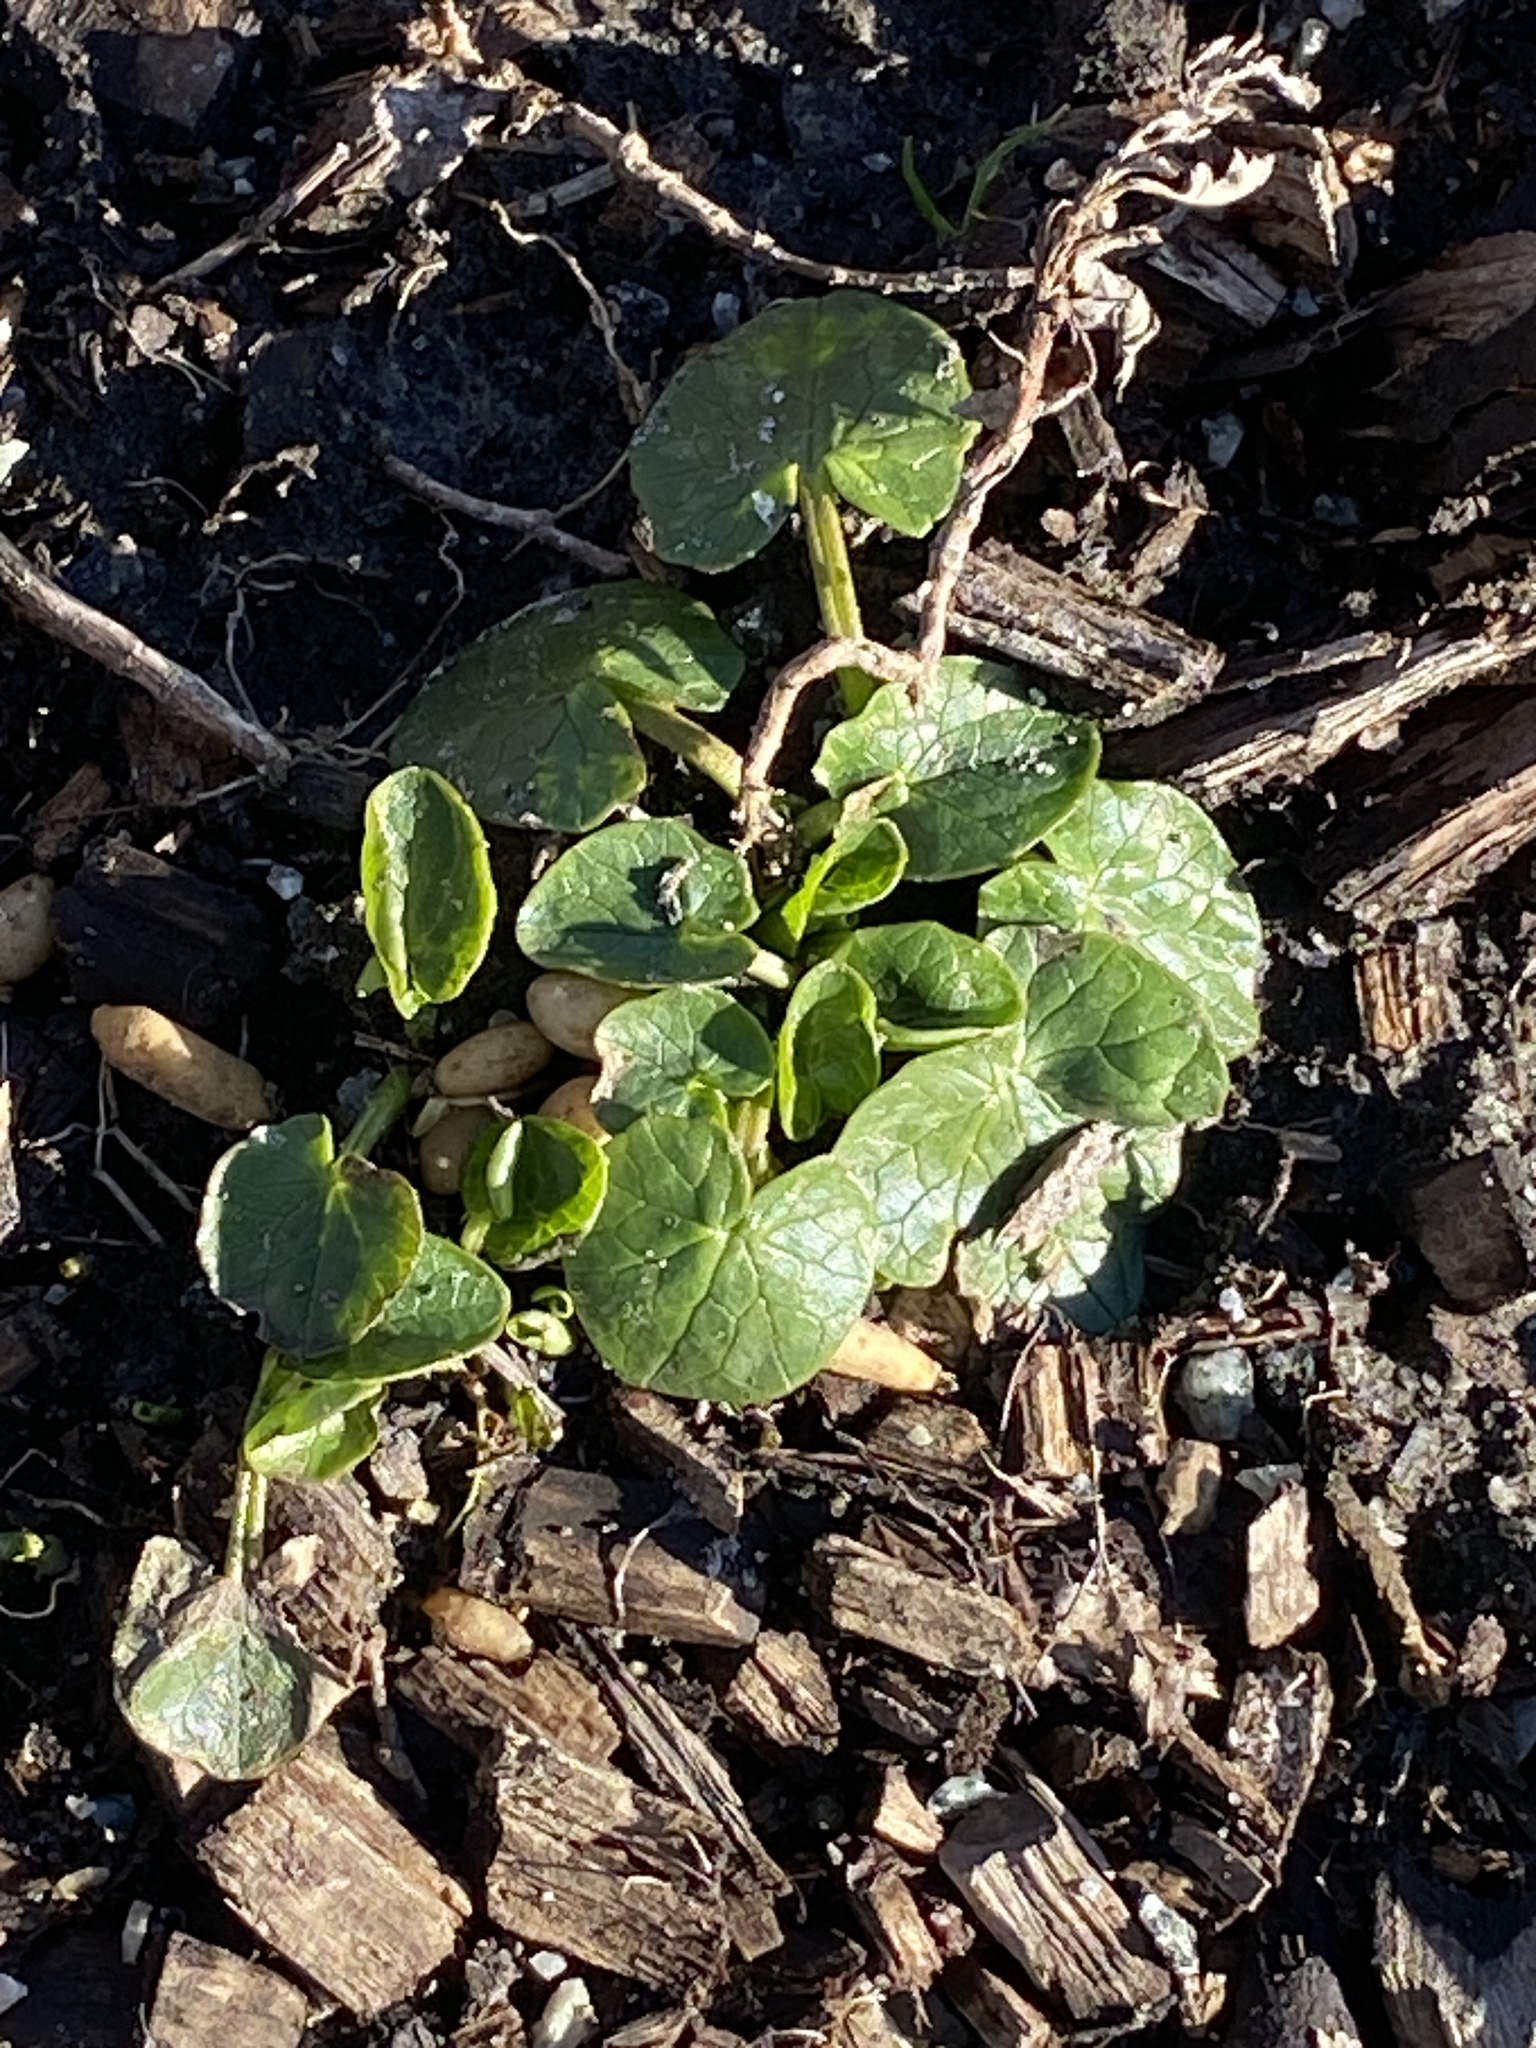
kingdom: Plantae
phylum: Tracheophyta
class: Magnoliopsida
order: Ranunculales
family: Ranunculaceae
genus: Ficaria
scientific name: Ficaria verna
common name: Lesser celandine
